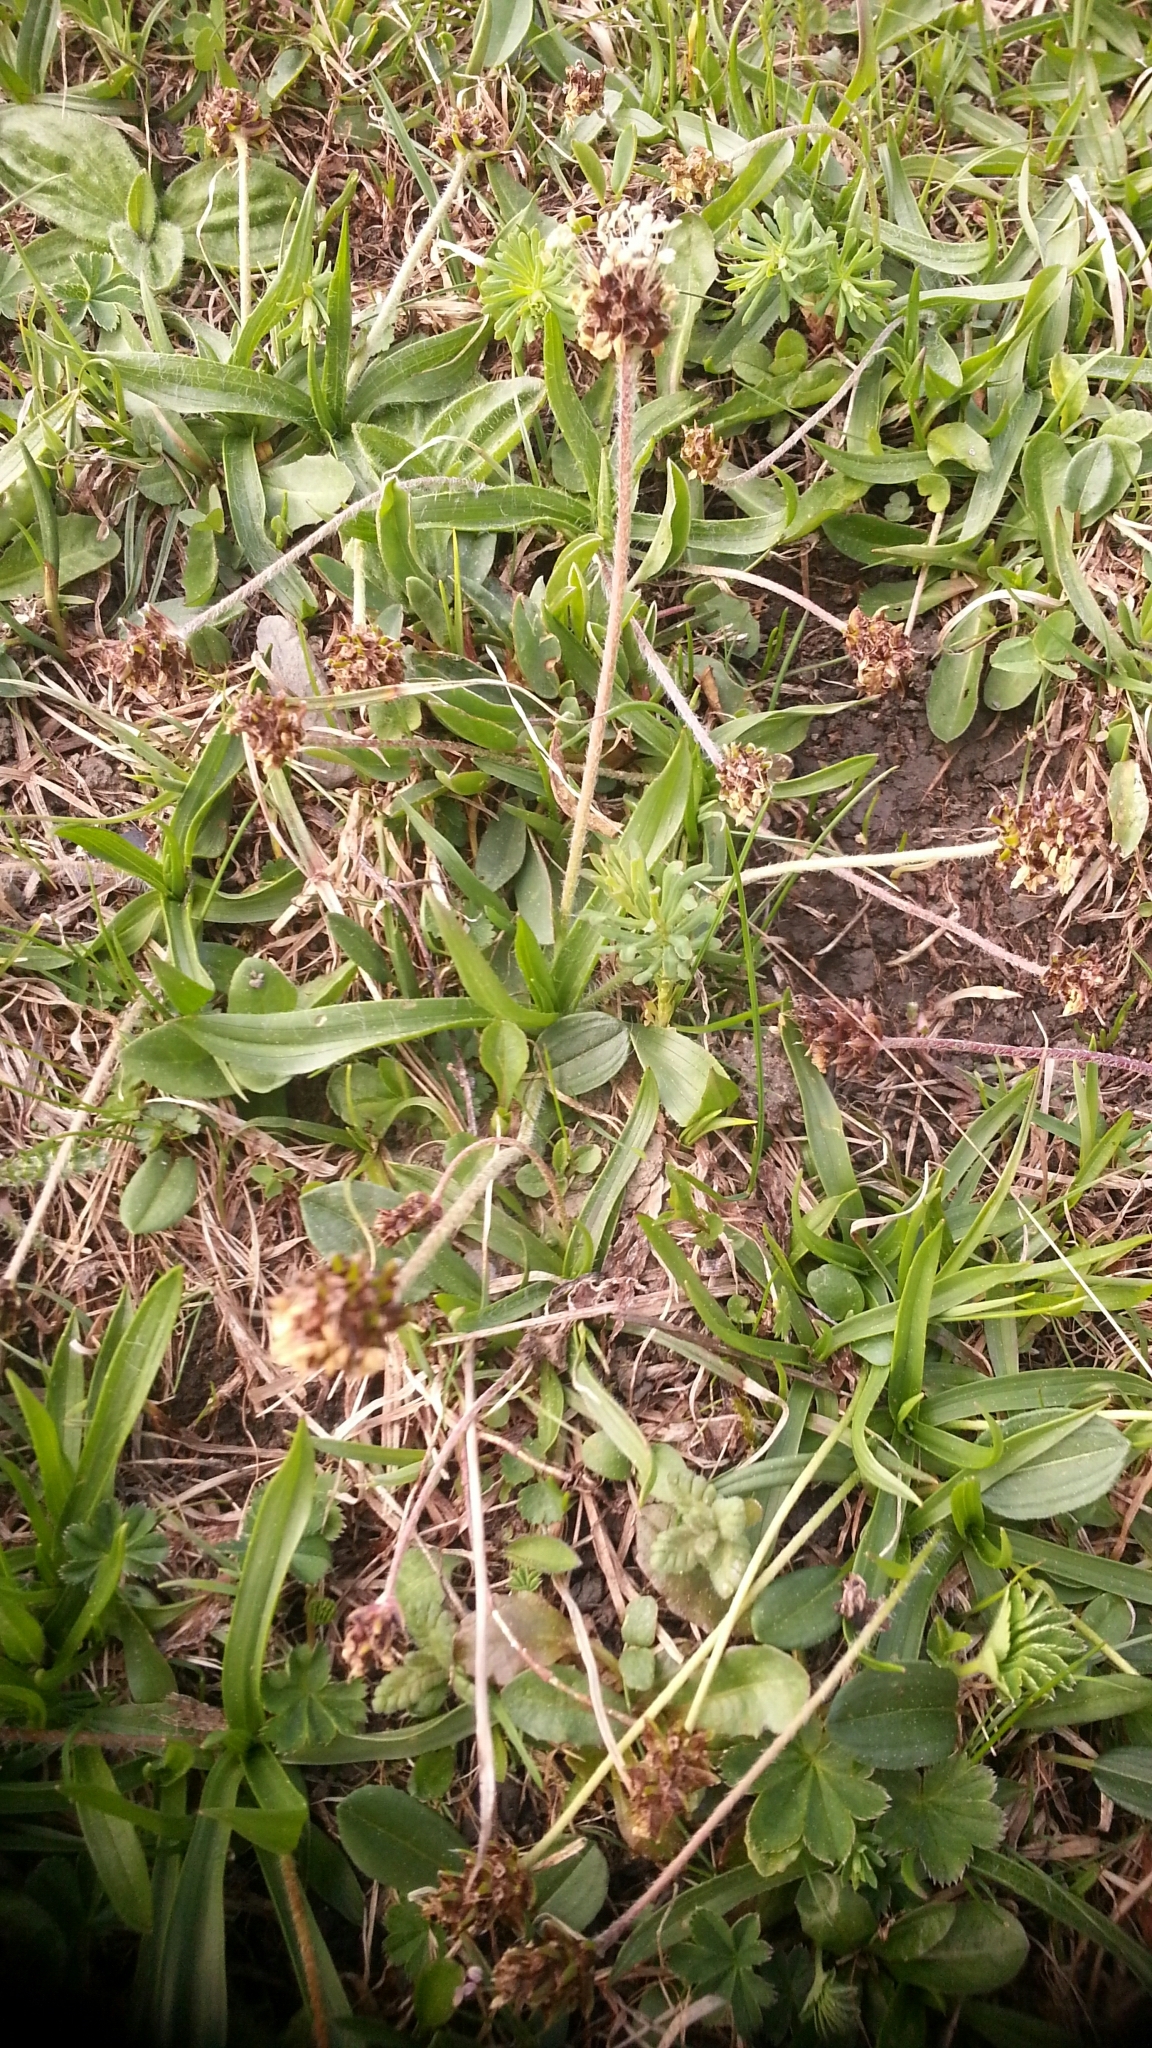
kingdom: Plantae
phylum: Tracheophyta
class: Magnoliopsida
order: Lamiales
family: Plantaginaceae
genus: Plantago
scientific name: Plantago atrata
